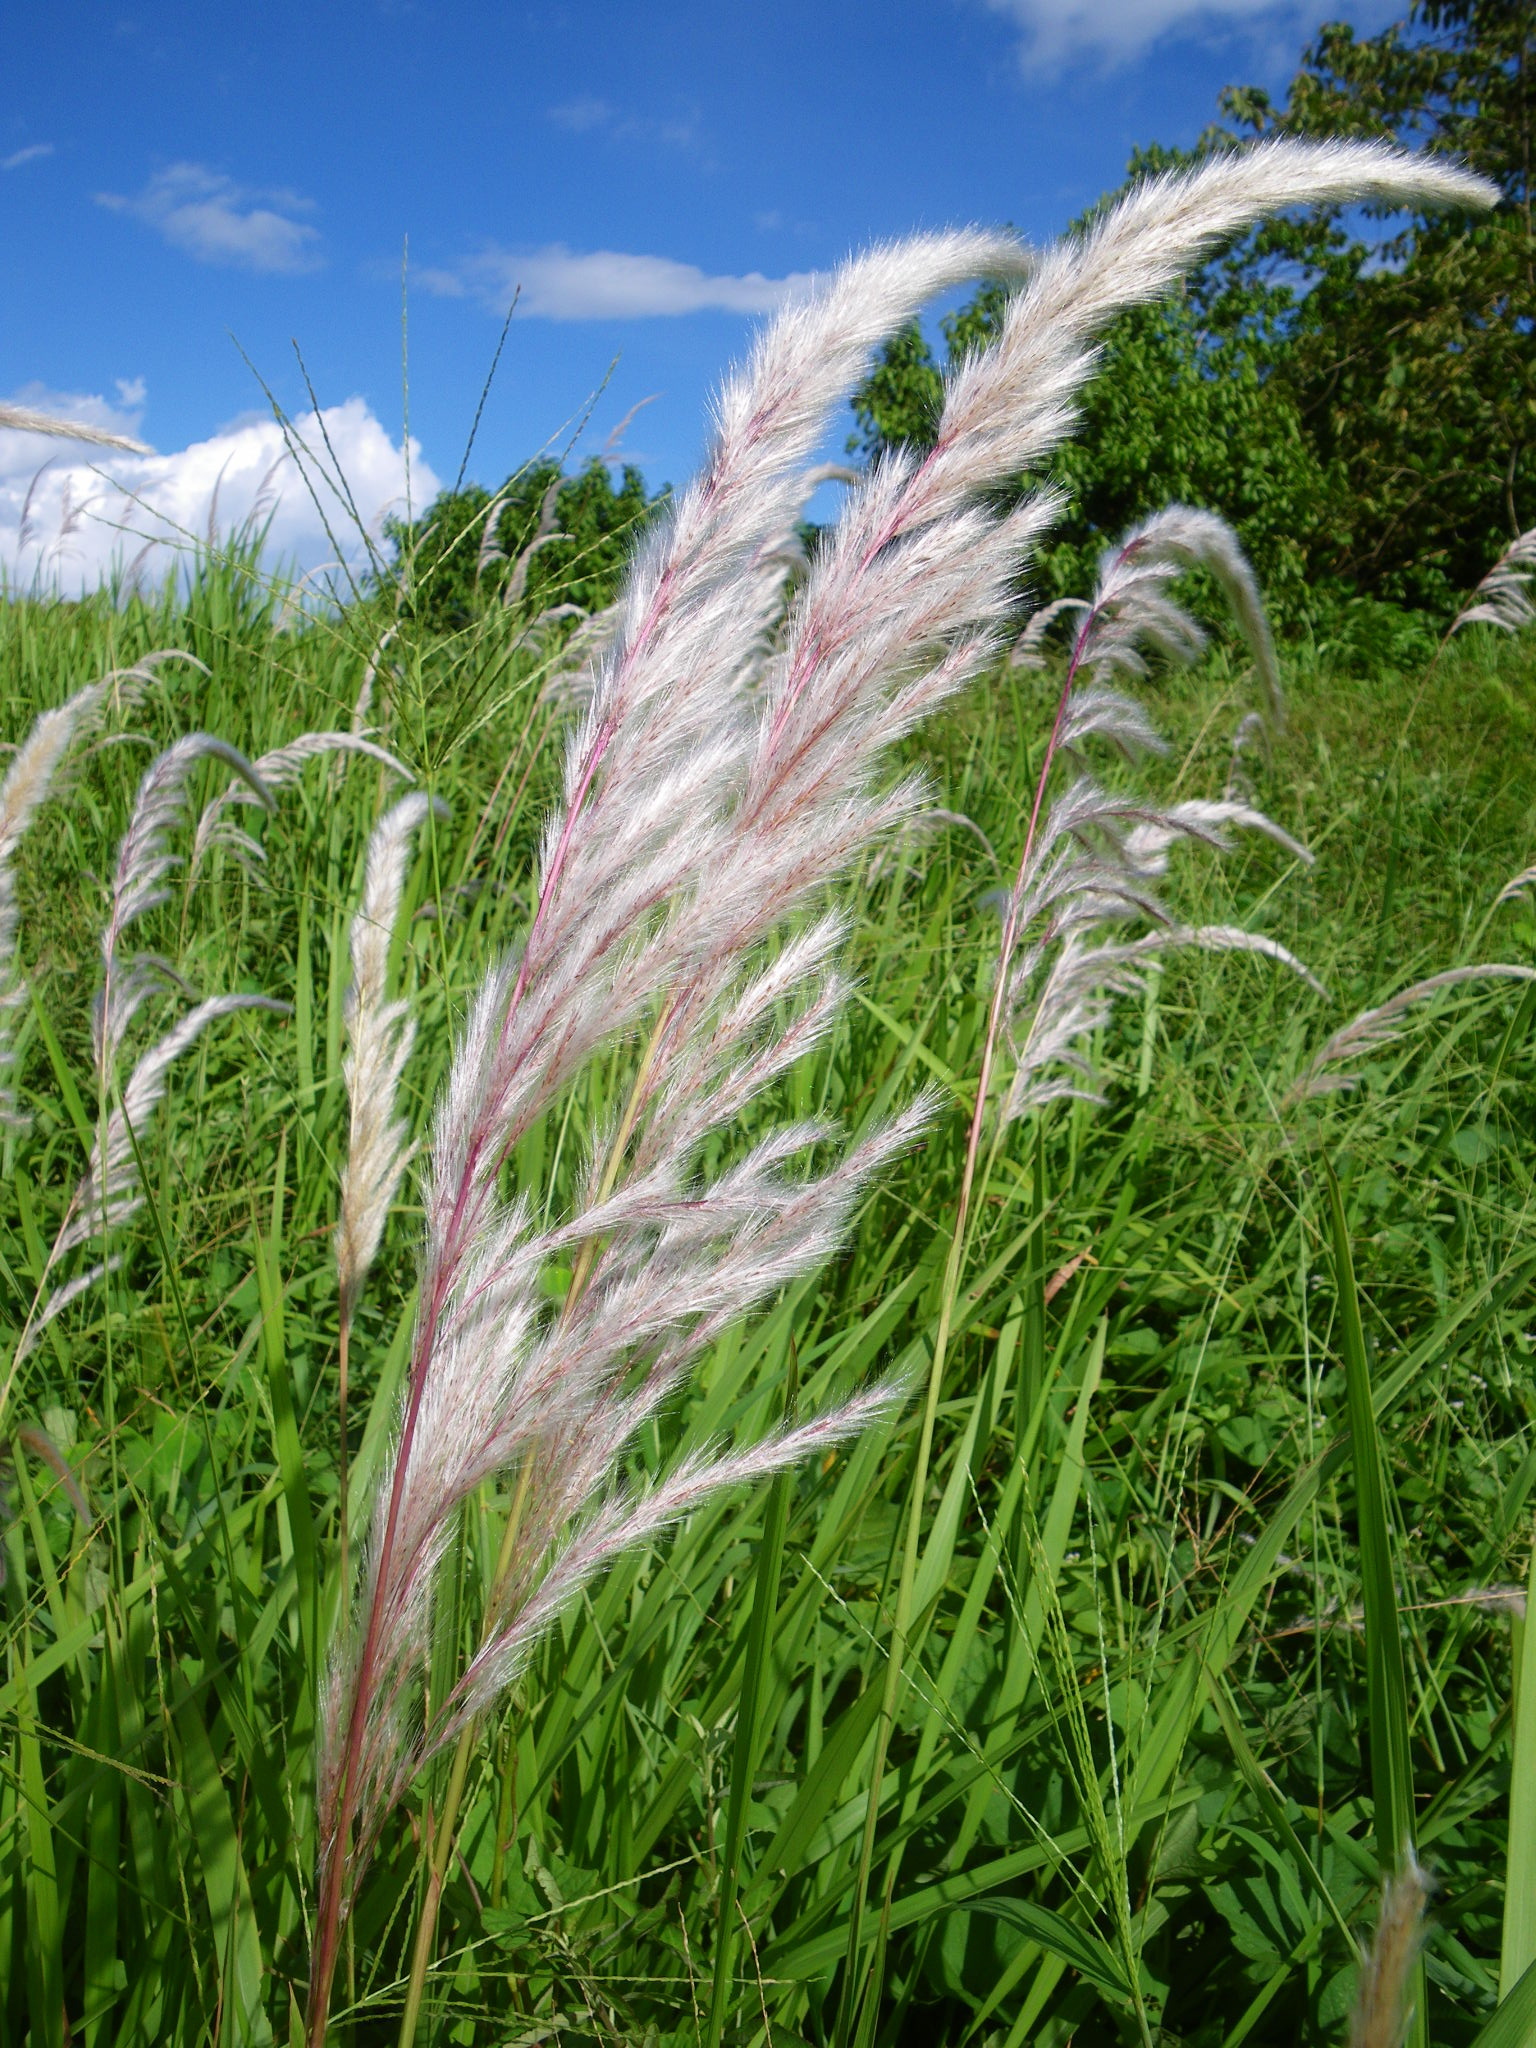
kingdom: Plantae
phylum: Tracheophyta
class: Liliopsida
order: Poales
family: Poaceae
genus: Imperata
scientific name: Imperata cylindrica
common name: Cogongrass
